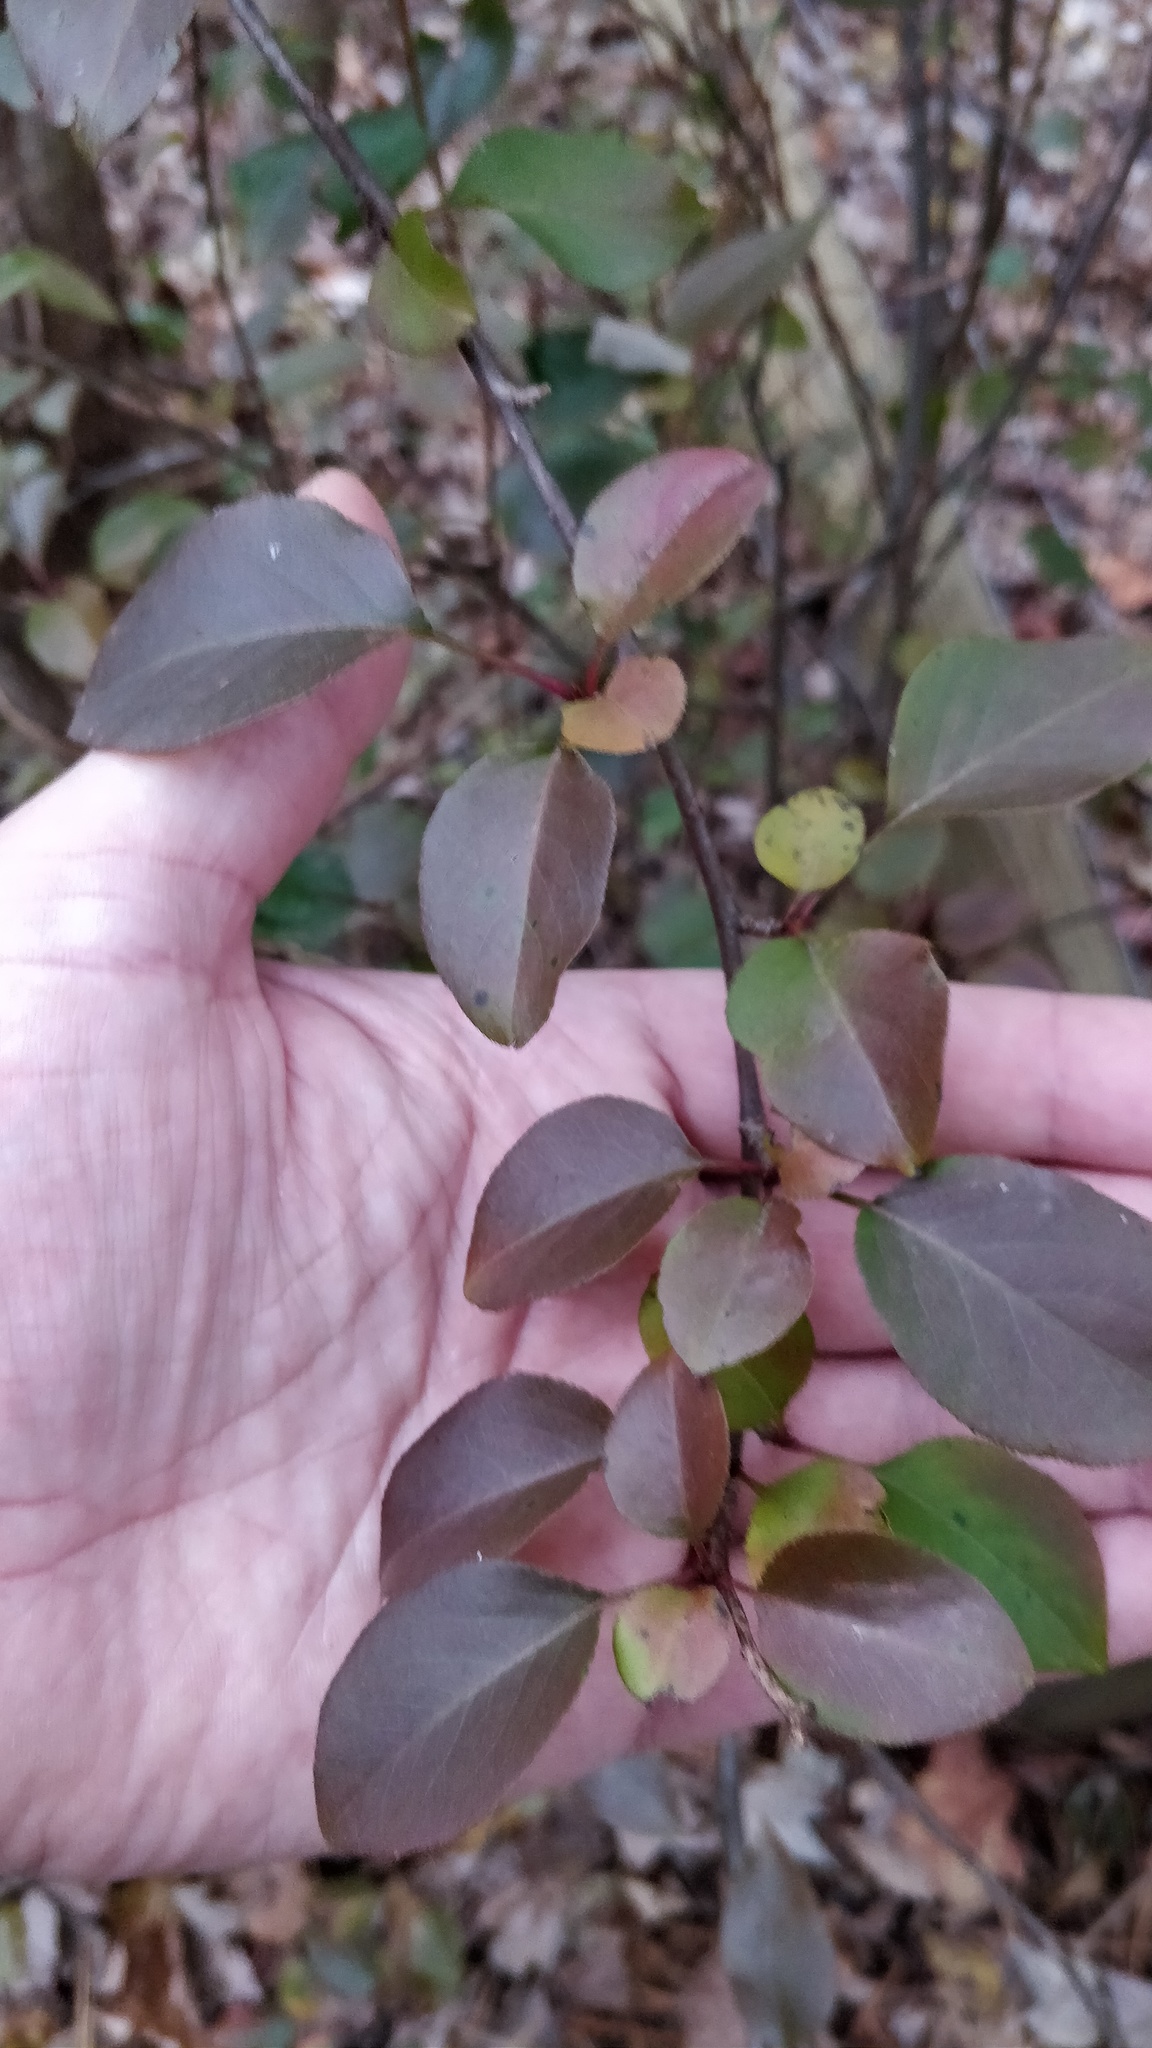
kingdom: Plantae
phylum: Tracheophyta
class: Magnoliopsida
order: Dipsacales
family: Viburnaceae
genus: Viburnum
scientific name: Viburnum prunifolium
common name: Black haw
